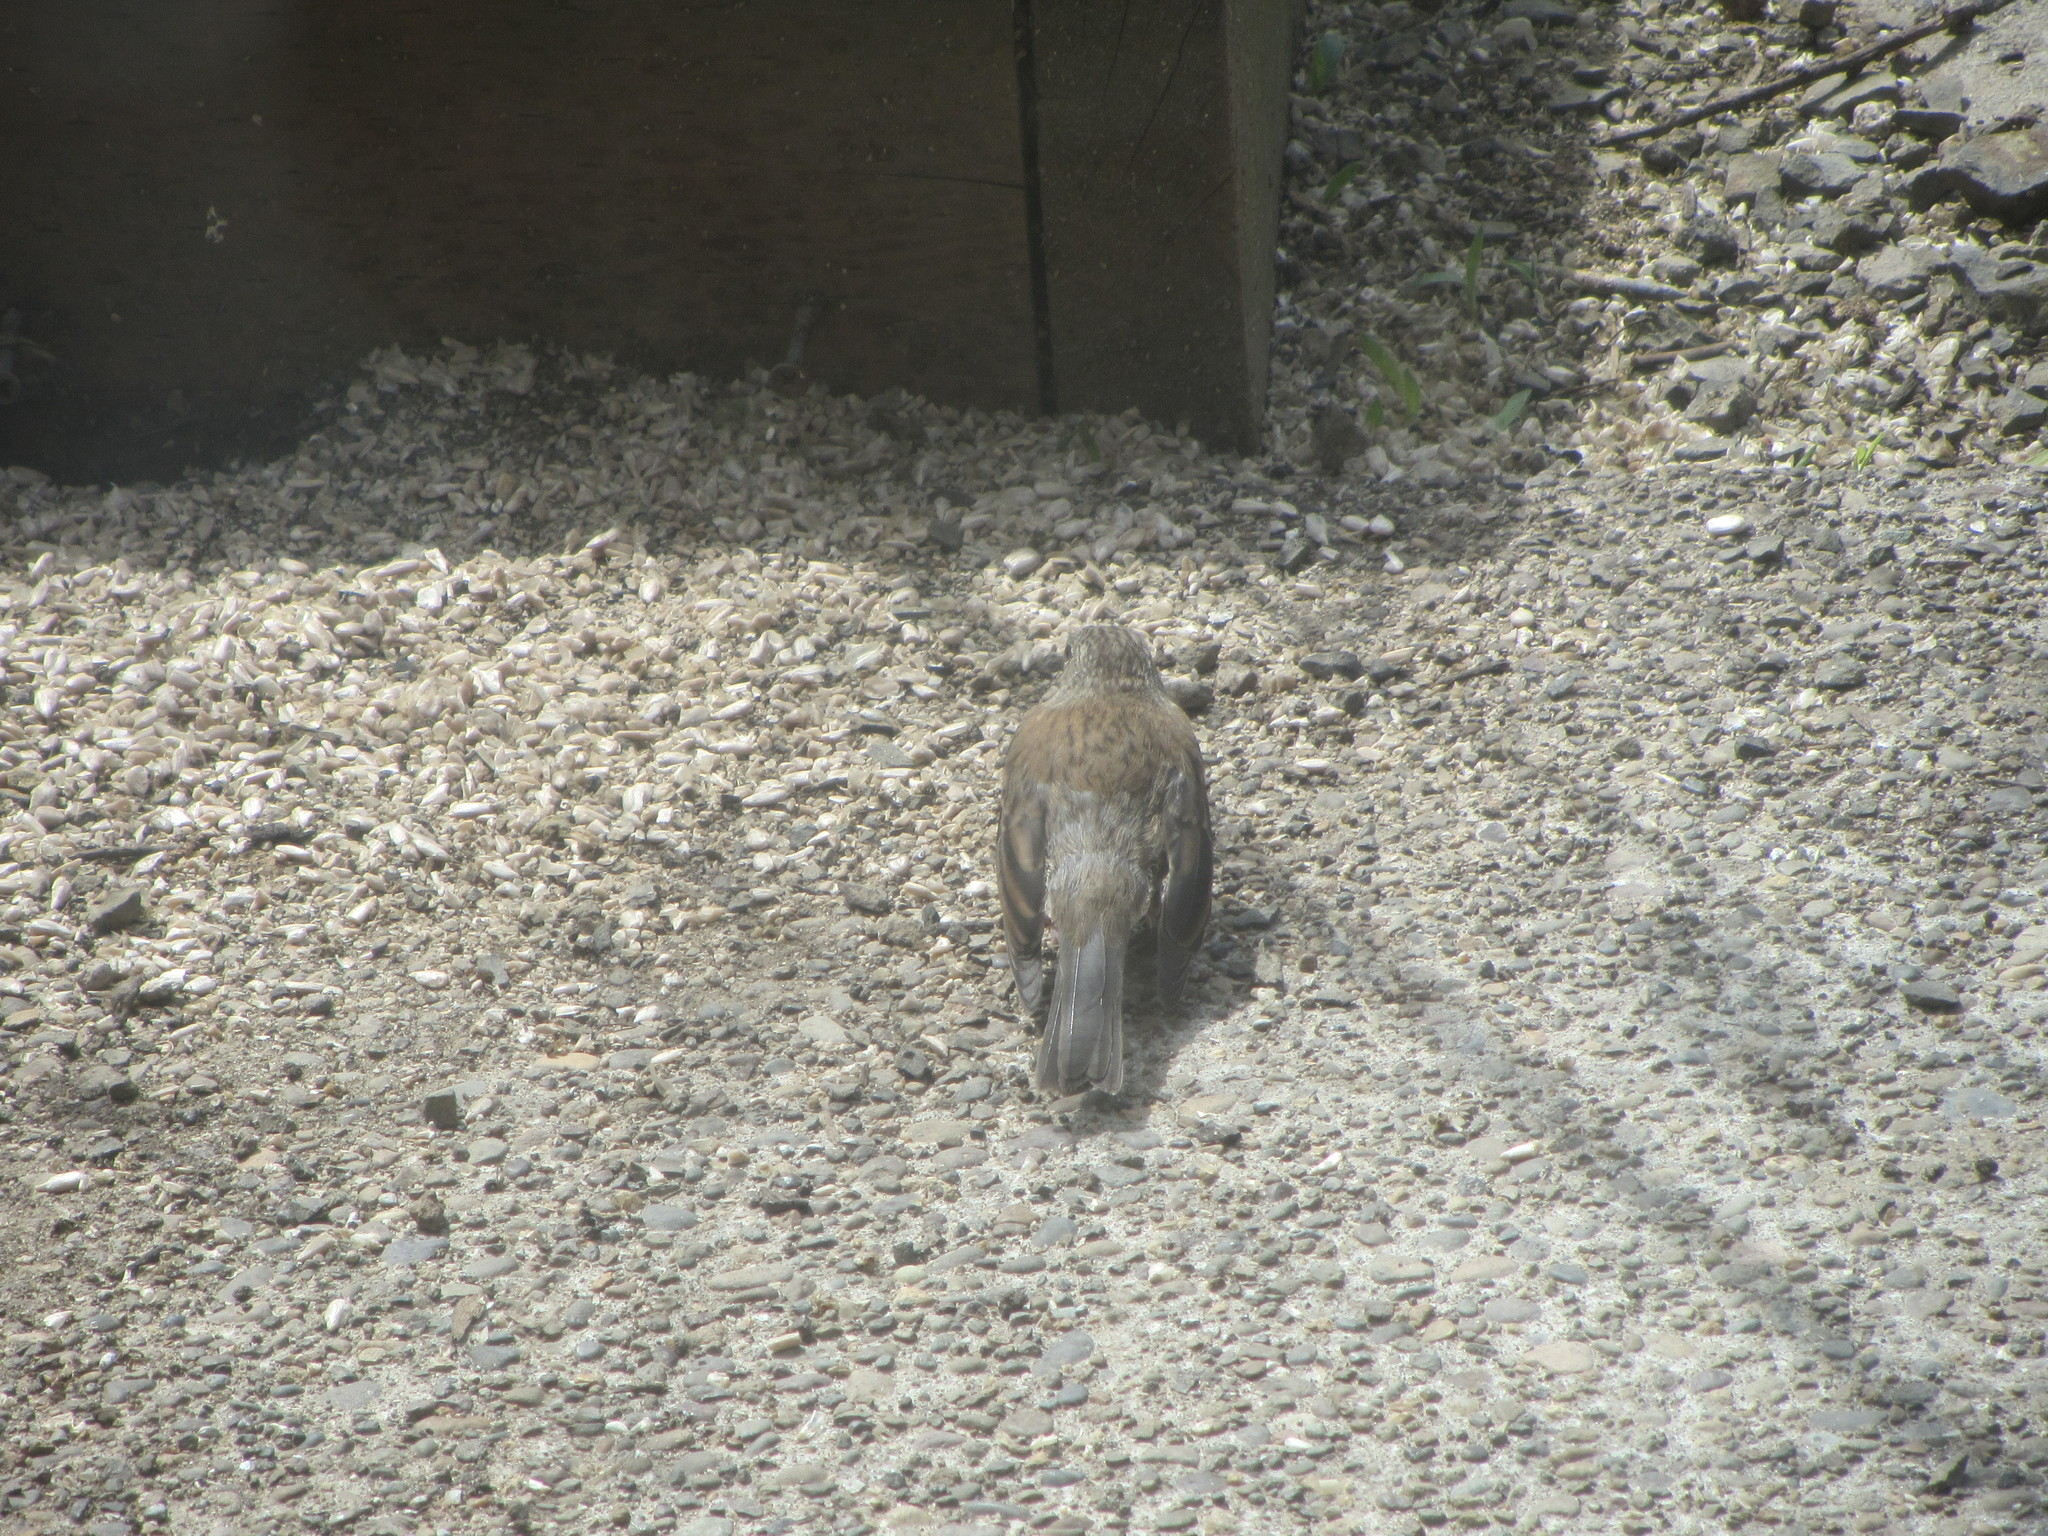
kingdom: Animalia
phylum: Chordata
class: Aves
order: Passeriformes
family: Passerellidae
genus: Junco
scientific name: Junco hyemalis
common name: Dark-eyed junco
